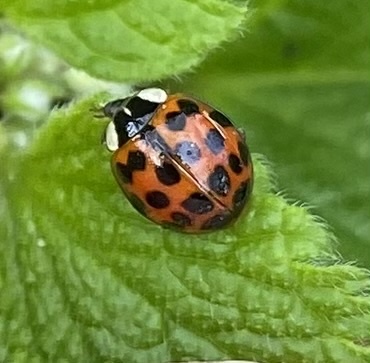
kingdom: Animalia
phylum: Arthropoda
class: Insecta
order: Coleoptera
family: Coccinellidae
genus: Harmonia
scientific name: Harmonia axyridis
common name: Harlequin ladybird
